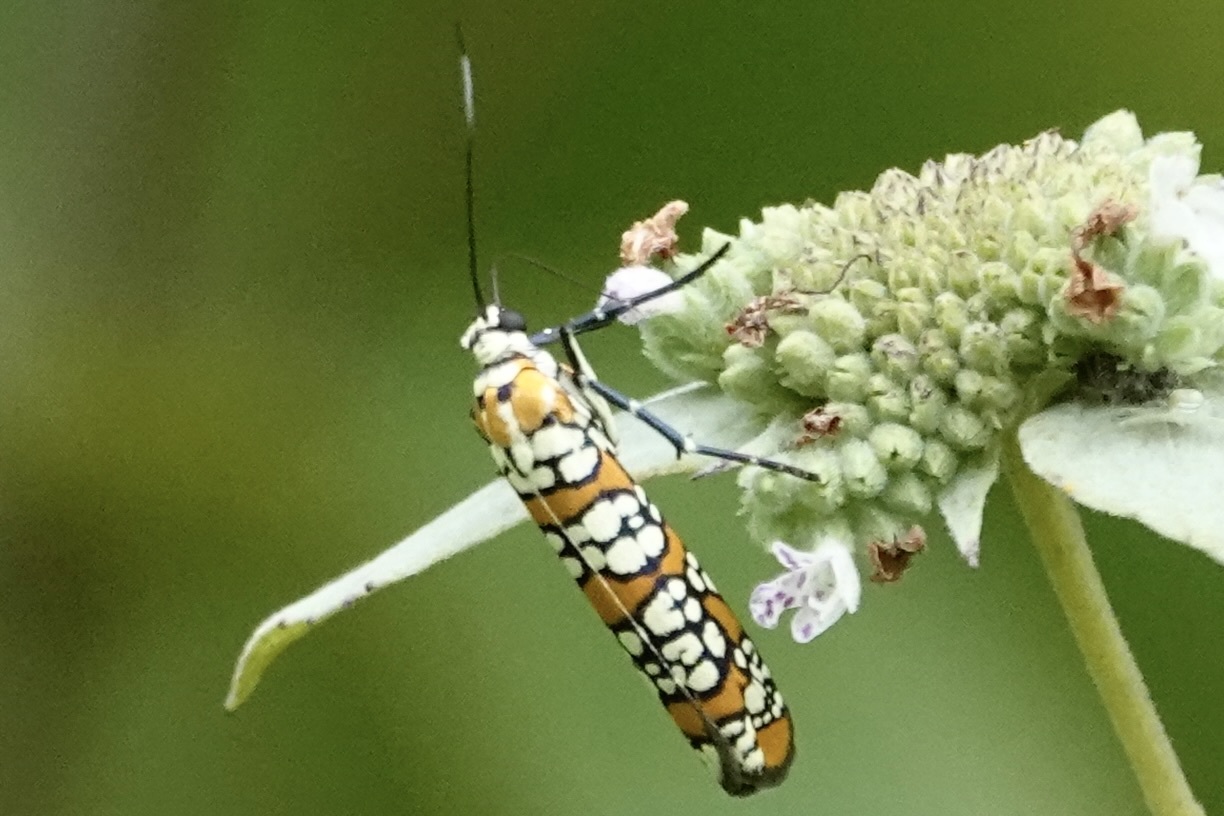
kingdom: Animalia
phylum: Arthropoda
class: Insecta
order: Lepidoptera
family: Attevidae
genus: Atteva
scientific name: Atteva punctella
